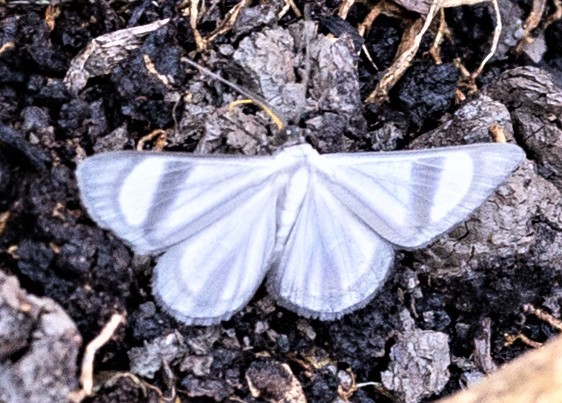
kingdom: Animalia
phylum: Arthropoda
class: Insecta
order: Lepidoptera
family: Geometridae
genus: Genussa
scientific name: Genussa famulata
